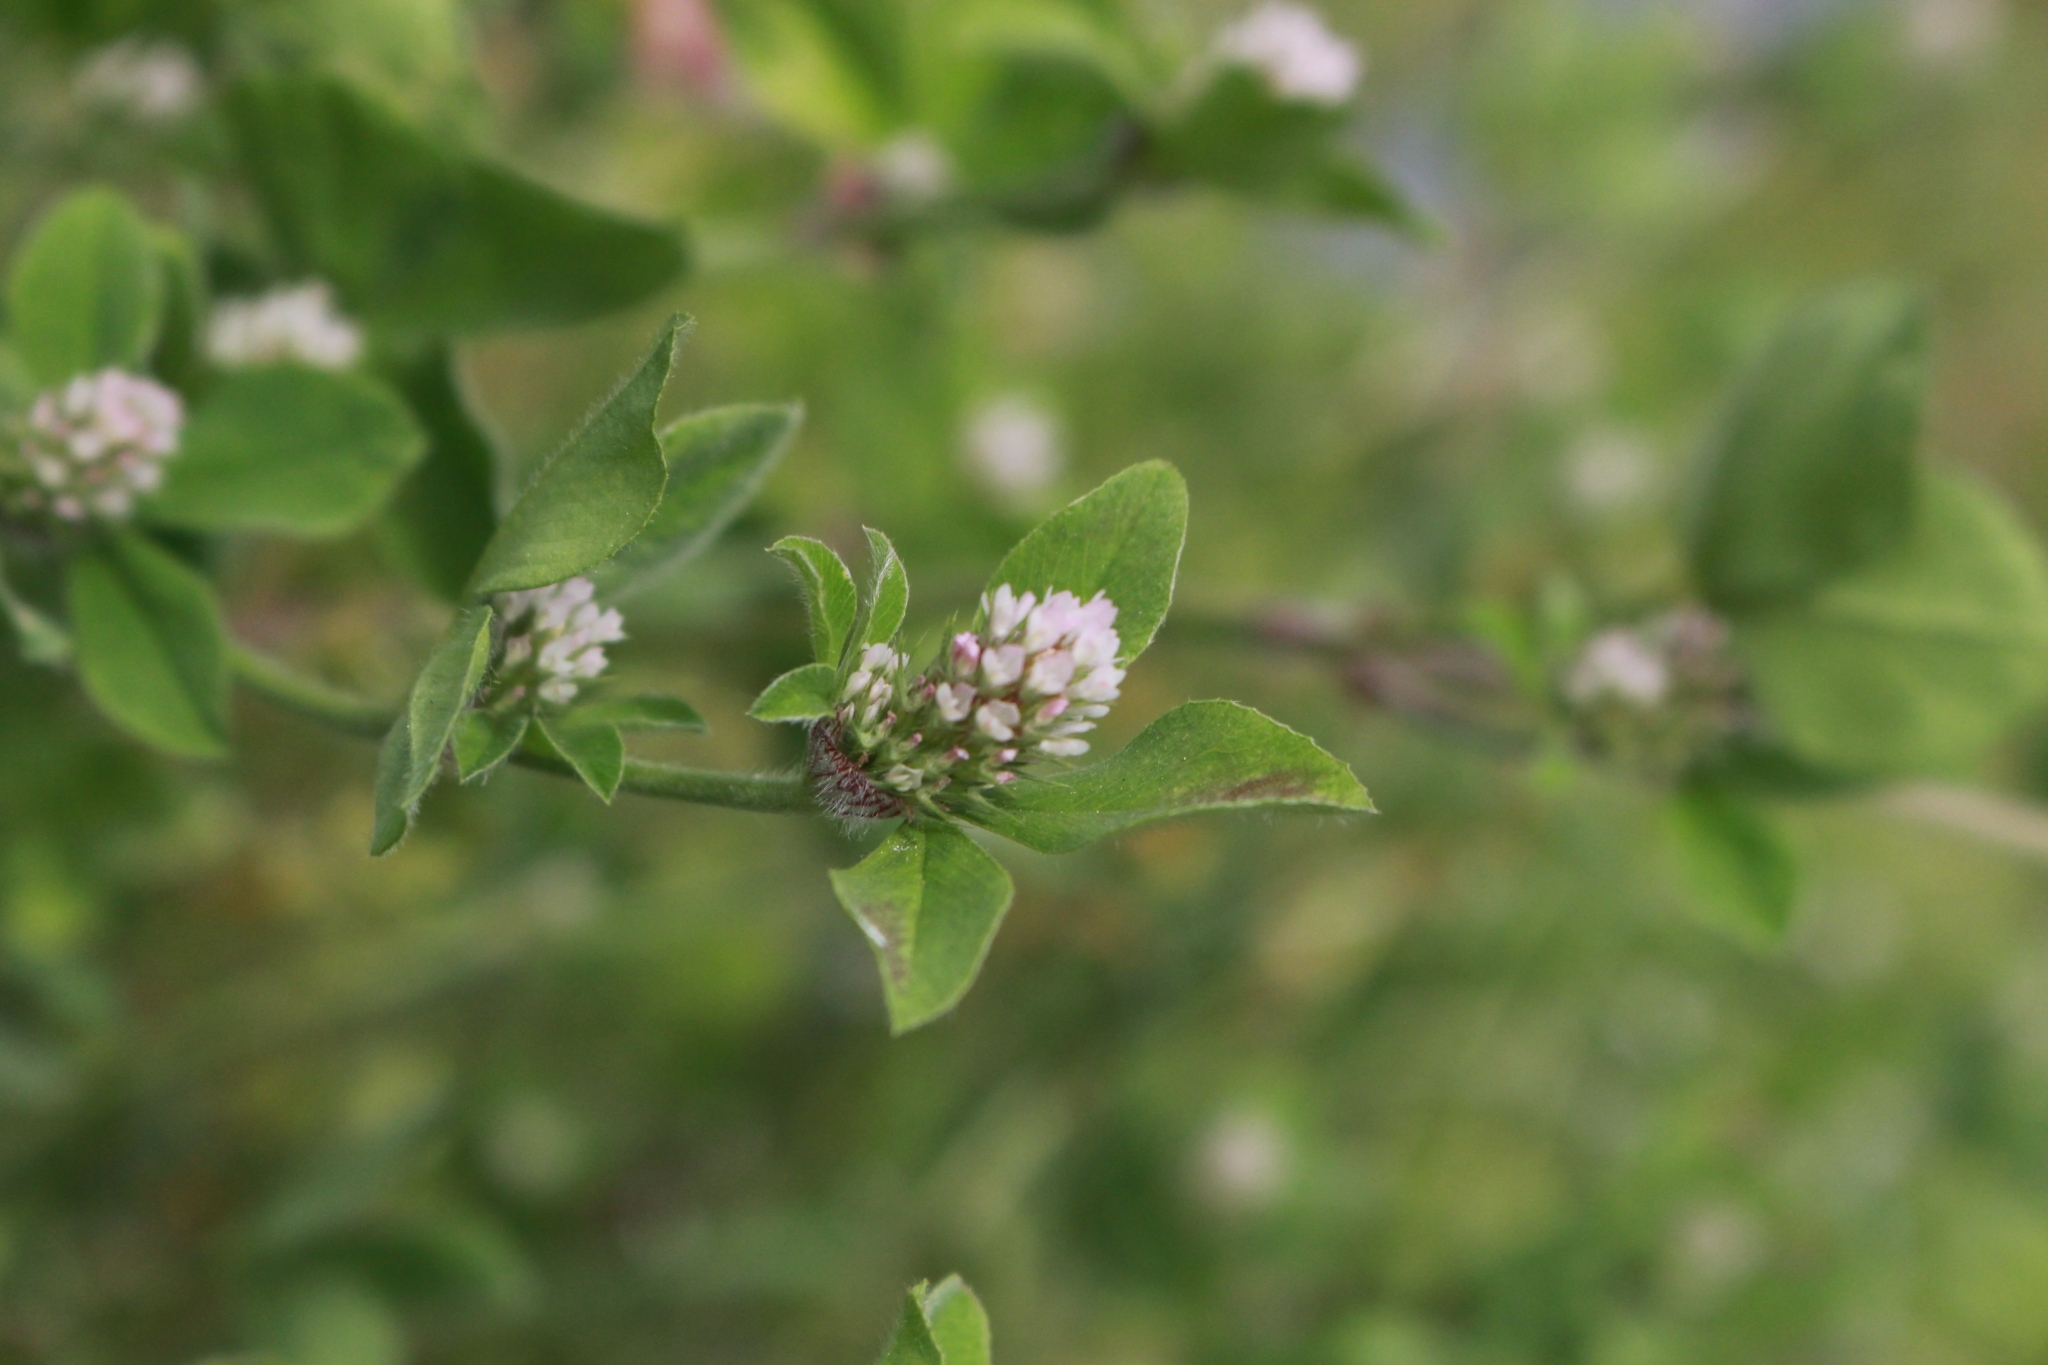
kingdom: Plantae
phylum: Tracheophyta
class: Magnoliopsida
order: Fabales
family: Fabaceae
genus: Trifolium
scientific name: Trifolium striatum
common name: Knotted clover
